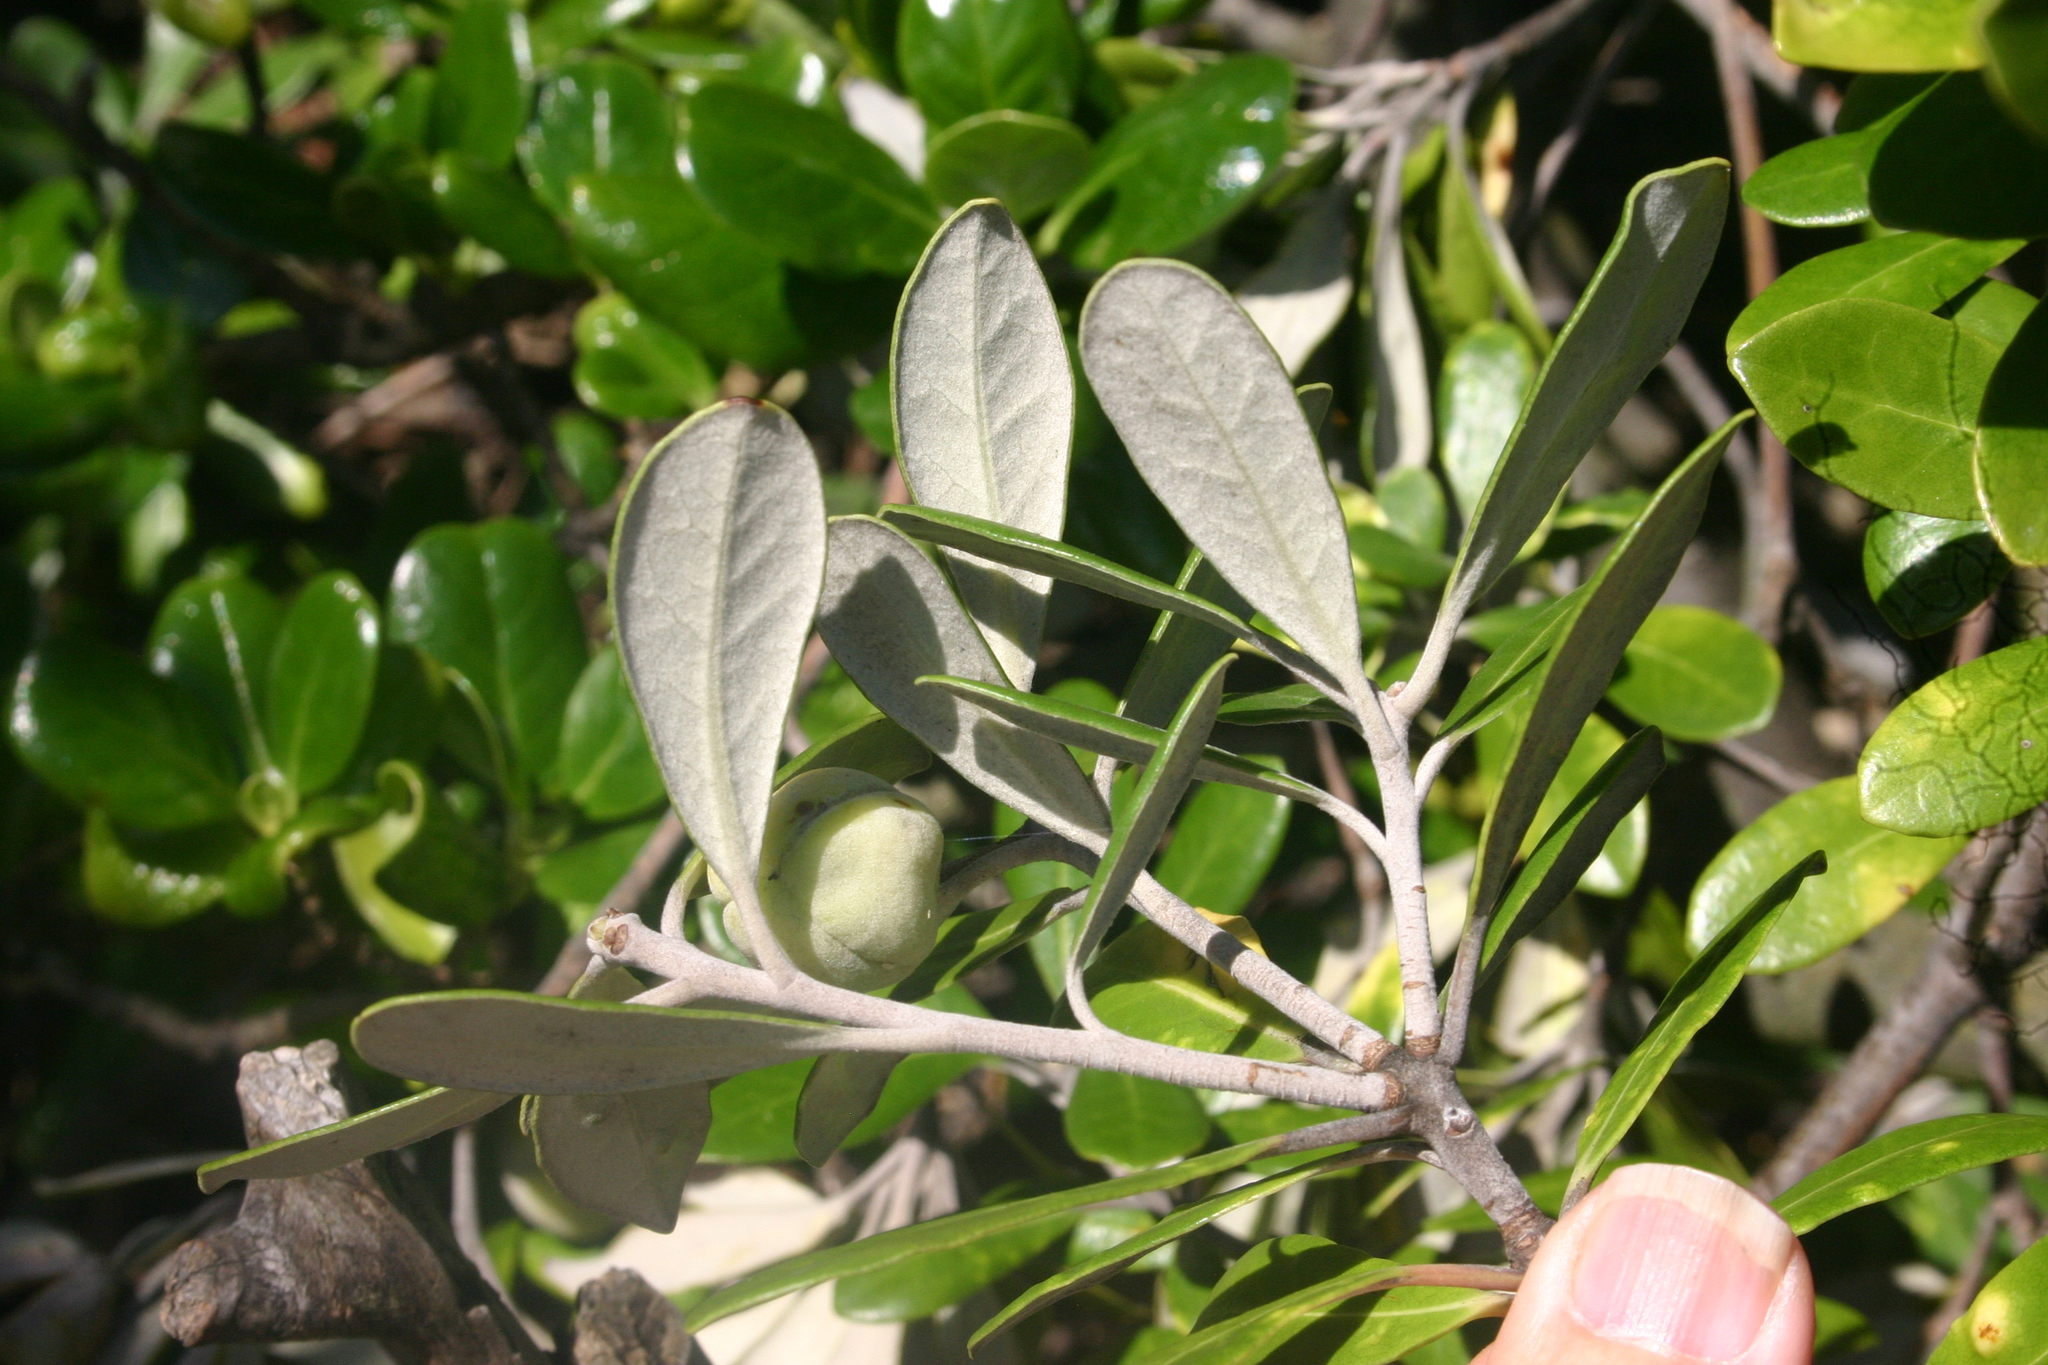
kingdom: Plantae
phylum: Tracheophyta
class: Magnoliopsida
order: Apiales
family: Pittosporaceae
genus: Pittosporum
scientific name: Pittosporum crassifolium
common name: Karo
